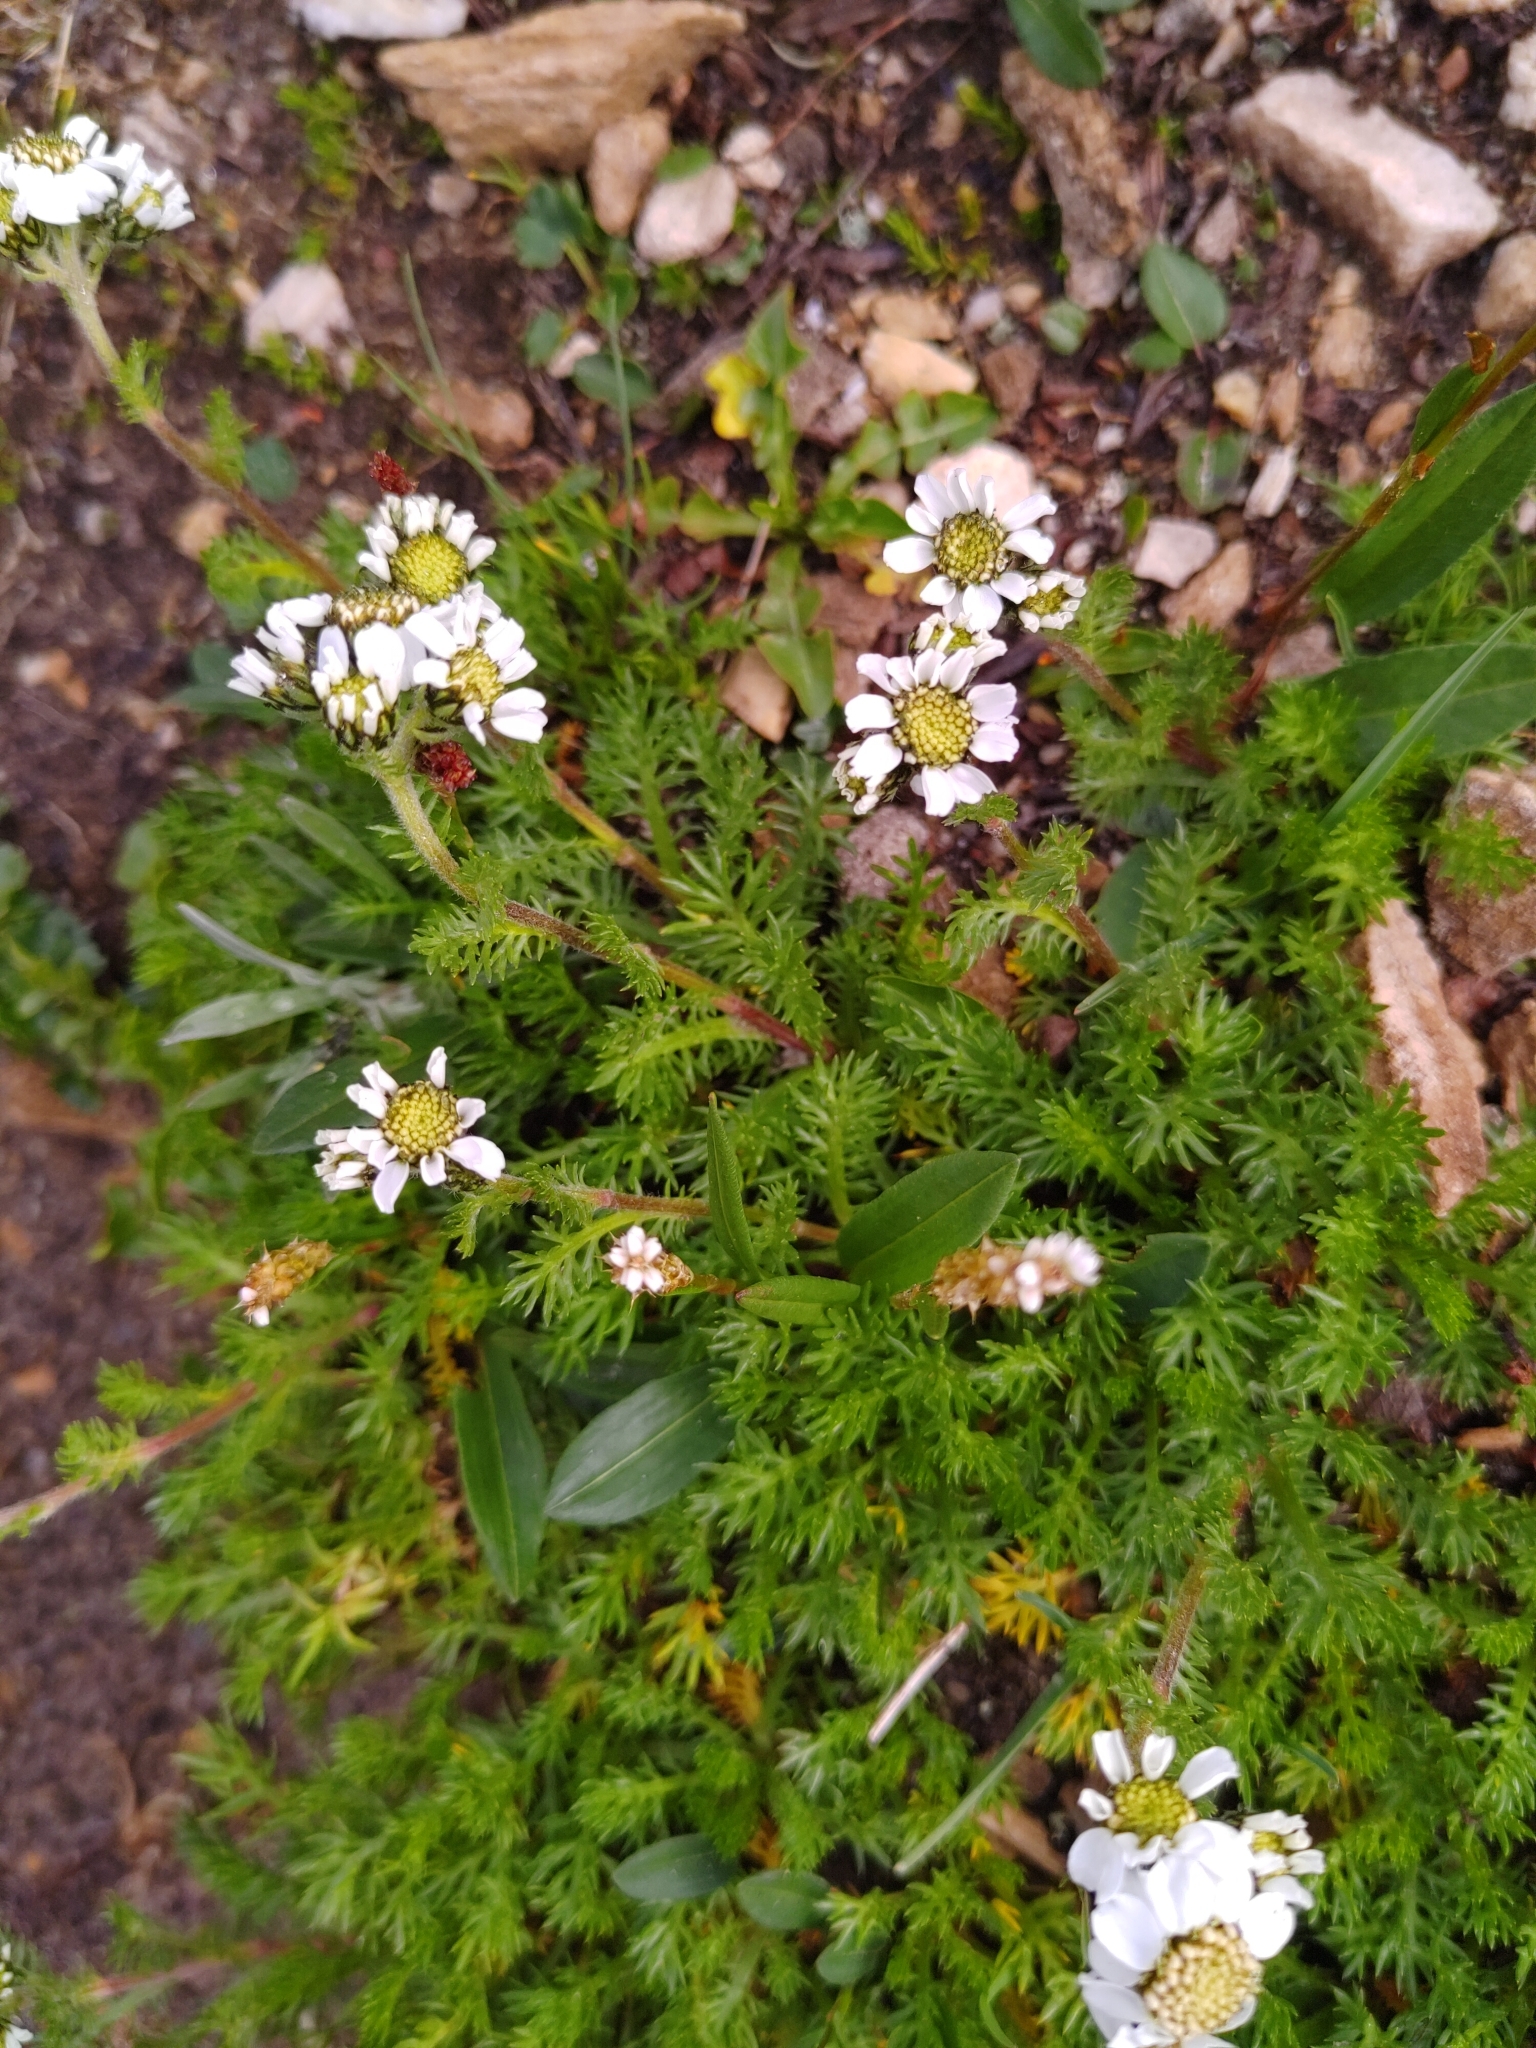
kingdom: Plantae
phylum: Tracheophyta
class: Magnoliopsida
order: Asterales
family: Asteraceae
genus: Achillea
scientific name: Achillea atrata
